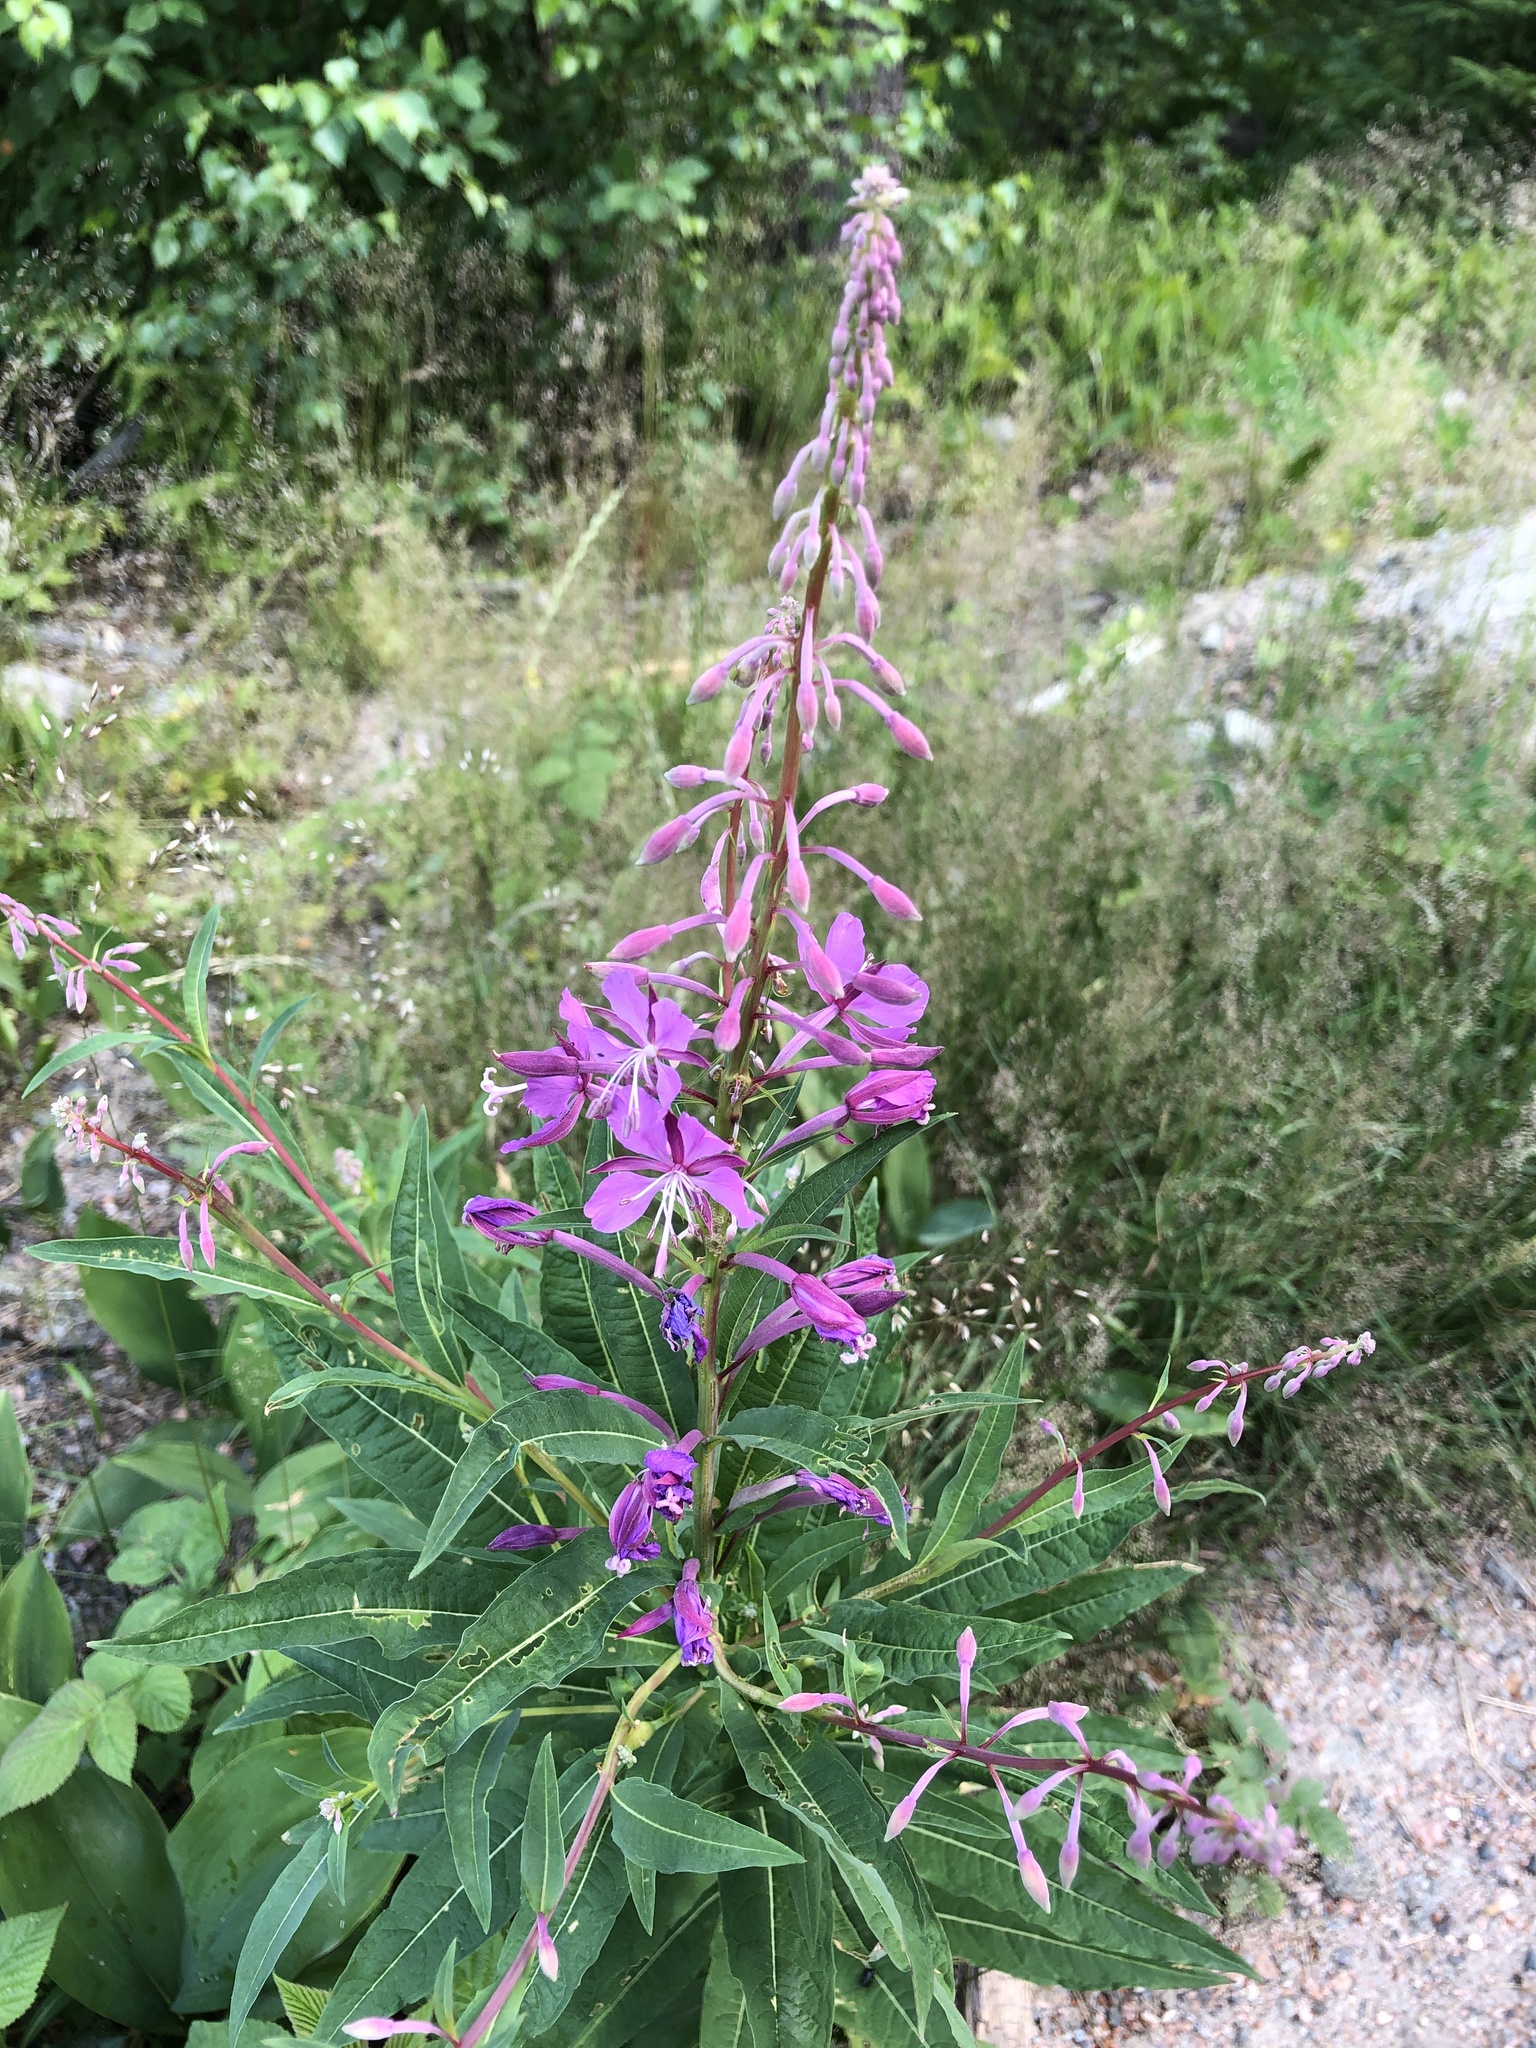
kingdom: Plantae
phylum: Tracheophyta
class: Magnoliopsida
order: Myrtales
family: Onagraceae
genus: Chamaenerion
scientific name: Chamaenerion angustifolium
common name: Fireweed
